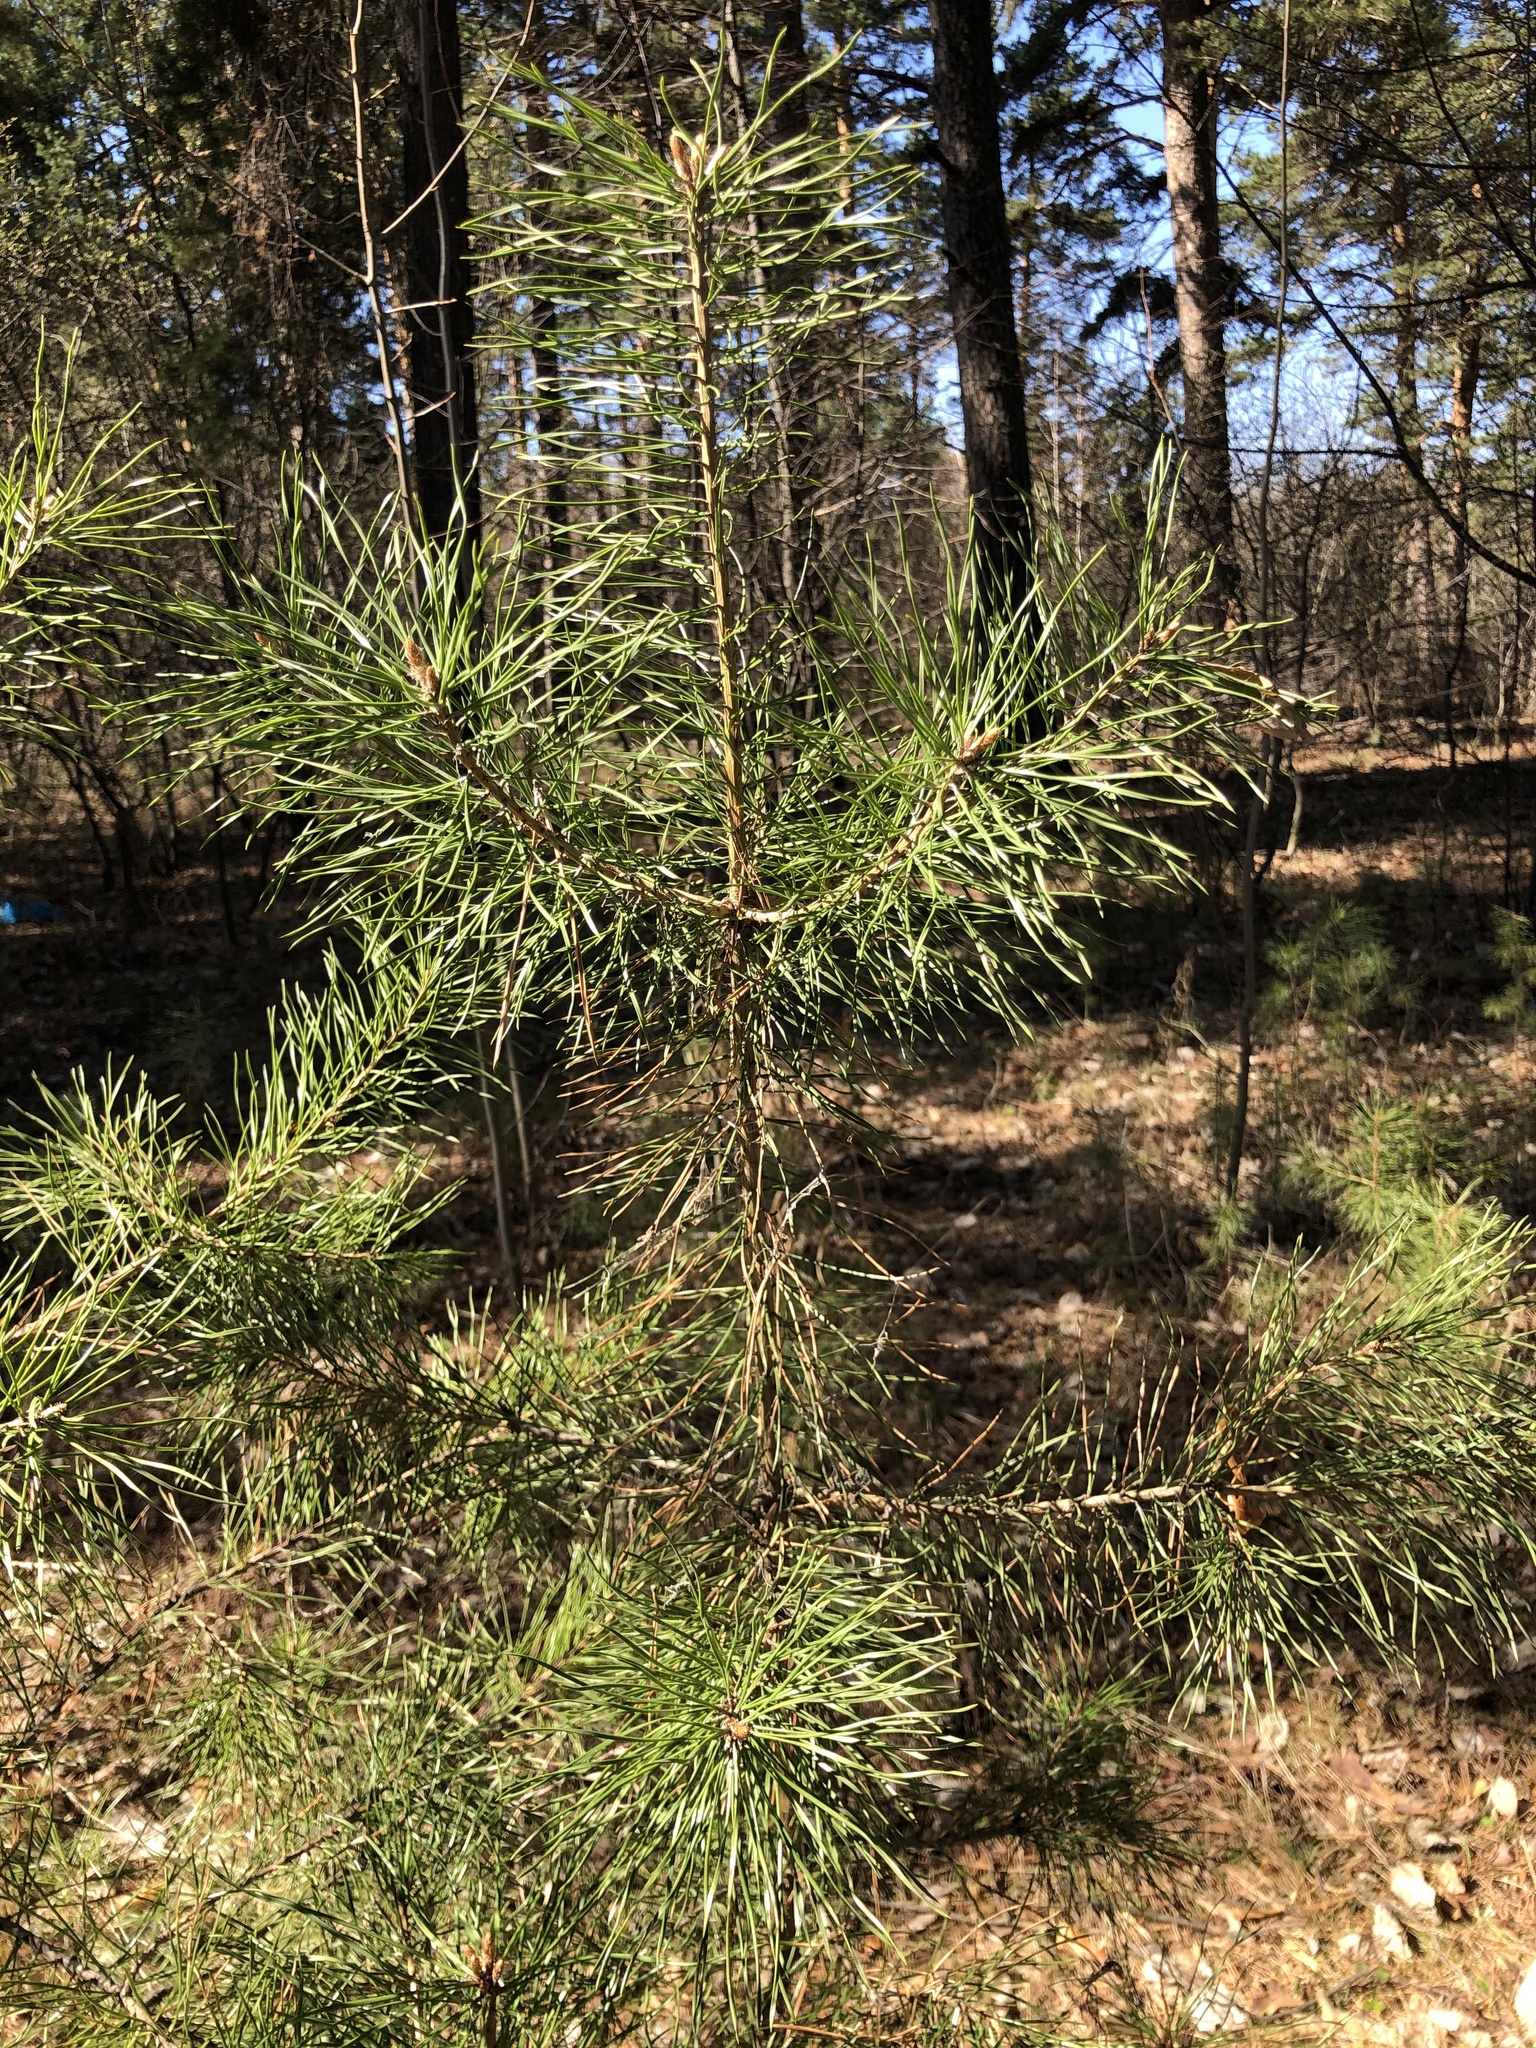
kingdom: Plantae
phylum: Tracheophyta
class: Pinopsida
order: Pinales
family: Pinaceae
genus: Pinus
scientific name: Pinus sylvestris
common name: Scots pine
